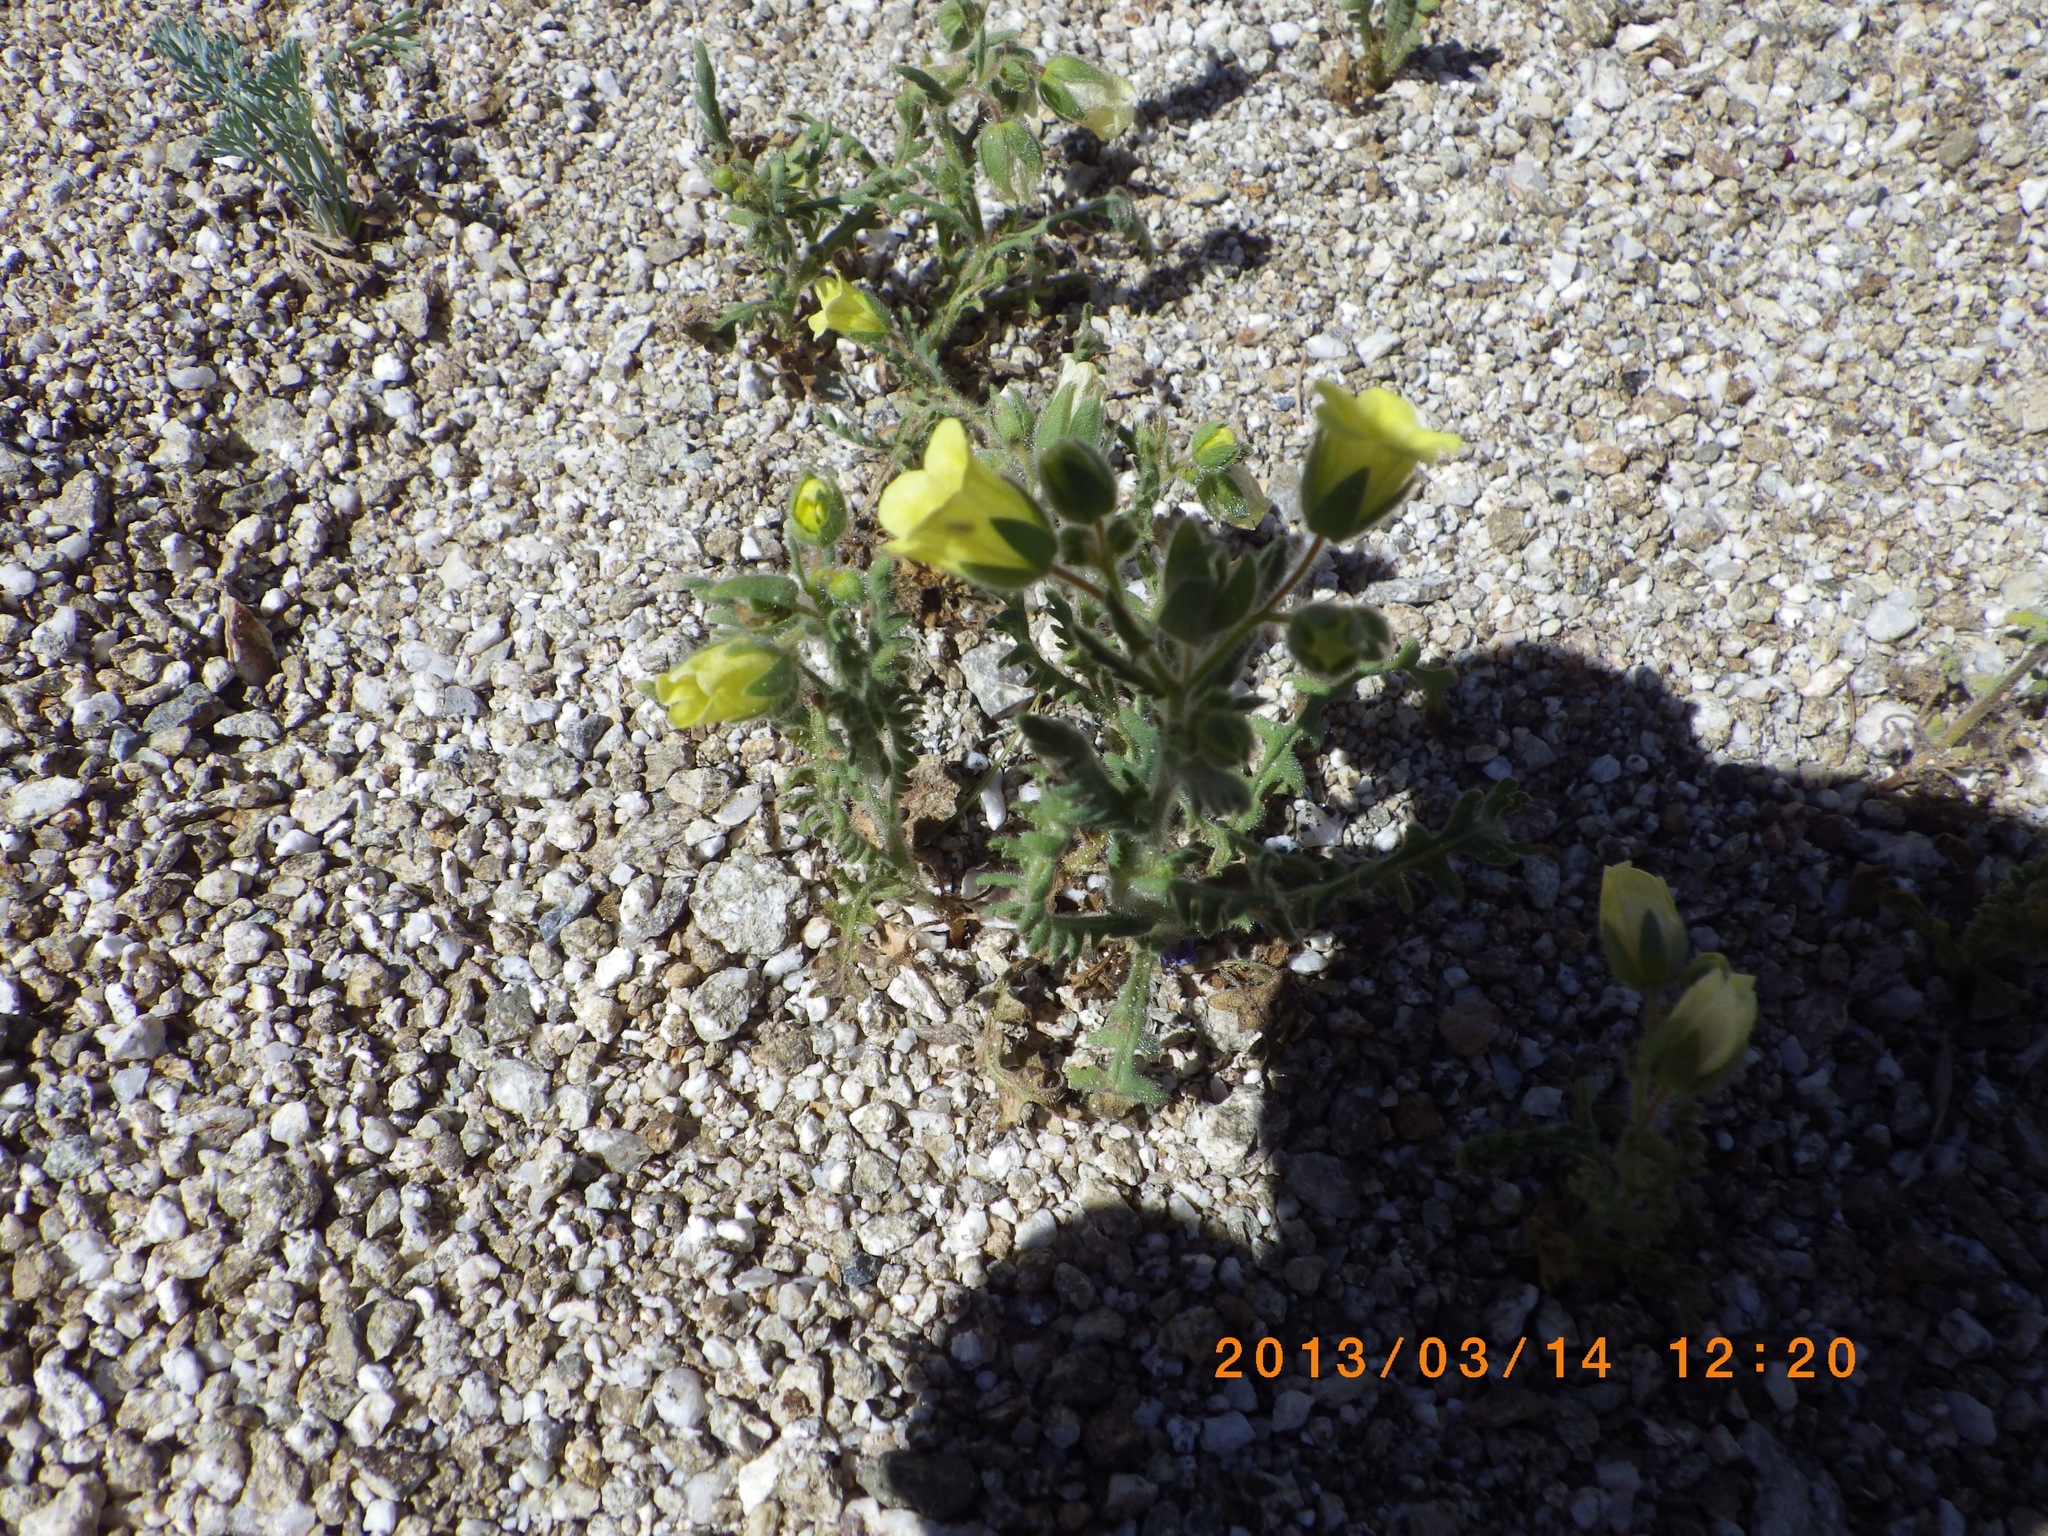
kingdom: Plantae
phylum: Tracheophyta
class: Magnoliopsida
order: Boraginales
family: Hydrophyllaceae
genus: Emmenanthe
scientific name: Emmenanthe penduliflora
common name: Whispering-bells
